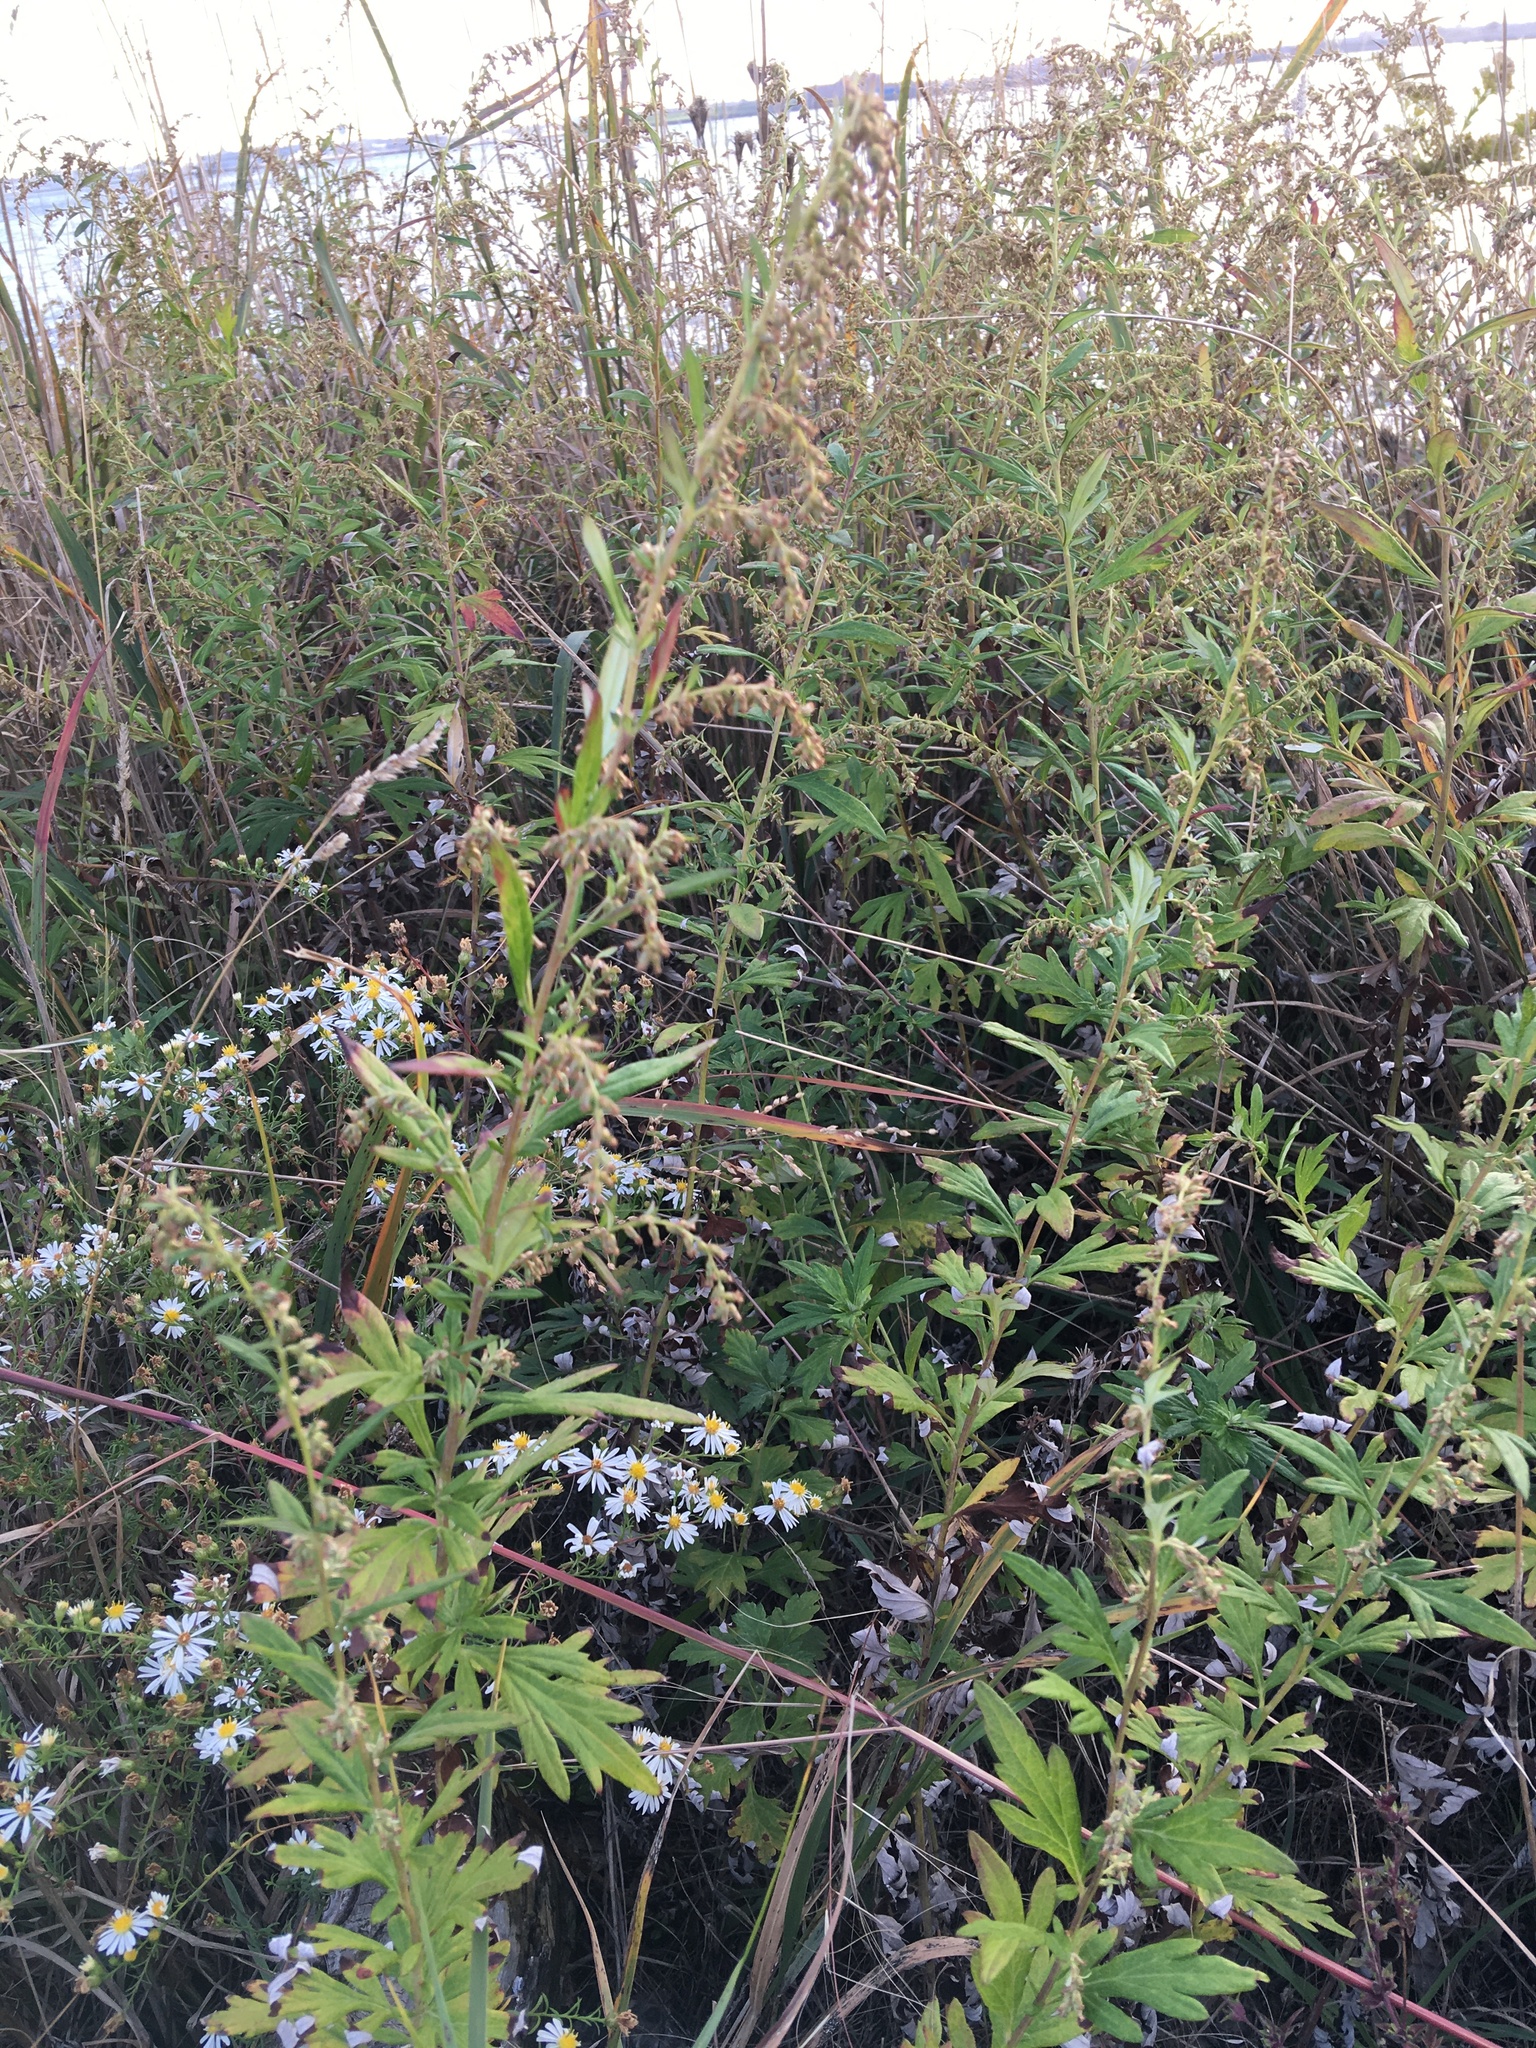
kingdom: Plantae
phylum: Tracheophyta
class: Magnoliopsida
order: Asterales
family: Asteraceae
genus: Artemisia
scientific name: Artemisia vulgaris
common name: Mugwort
